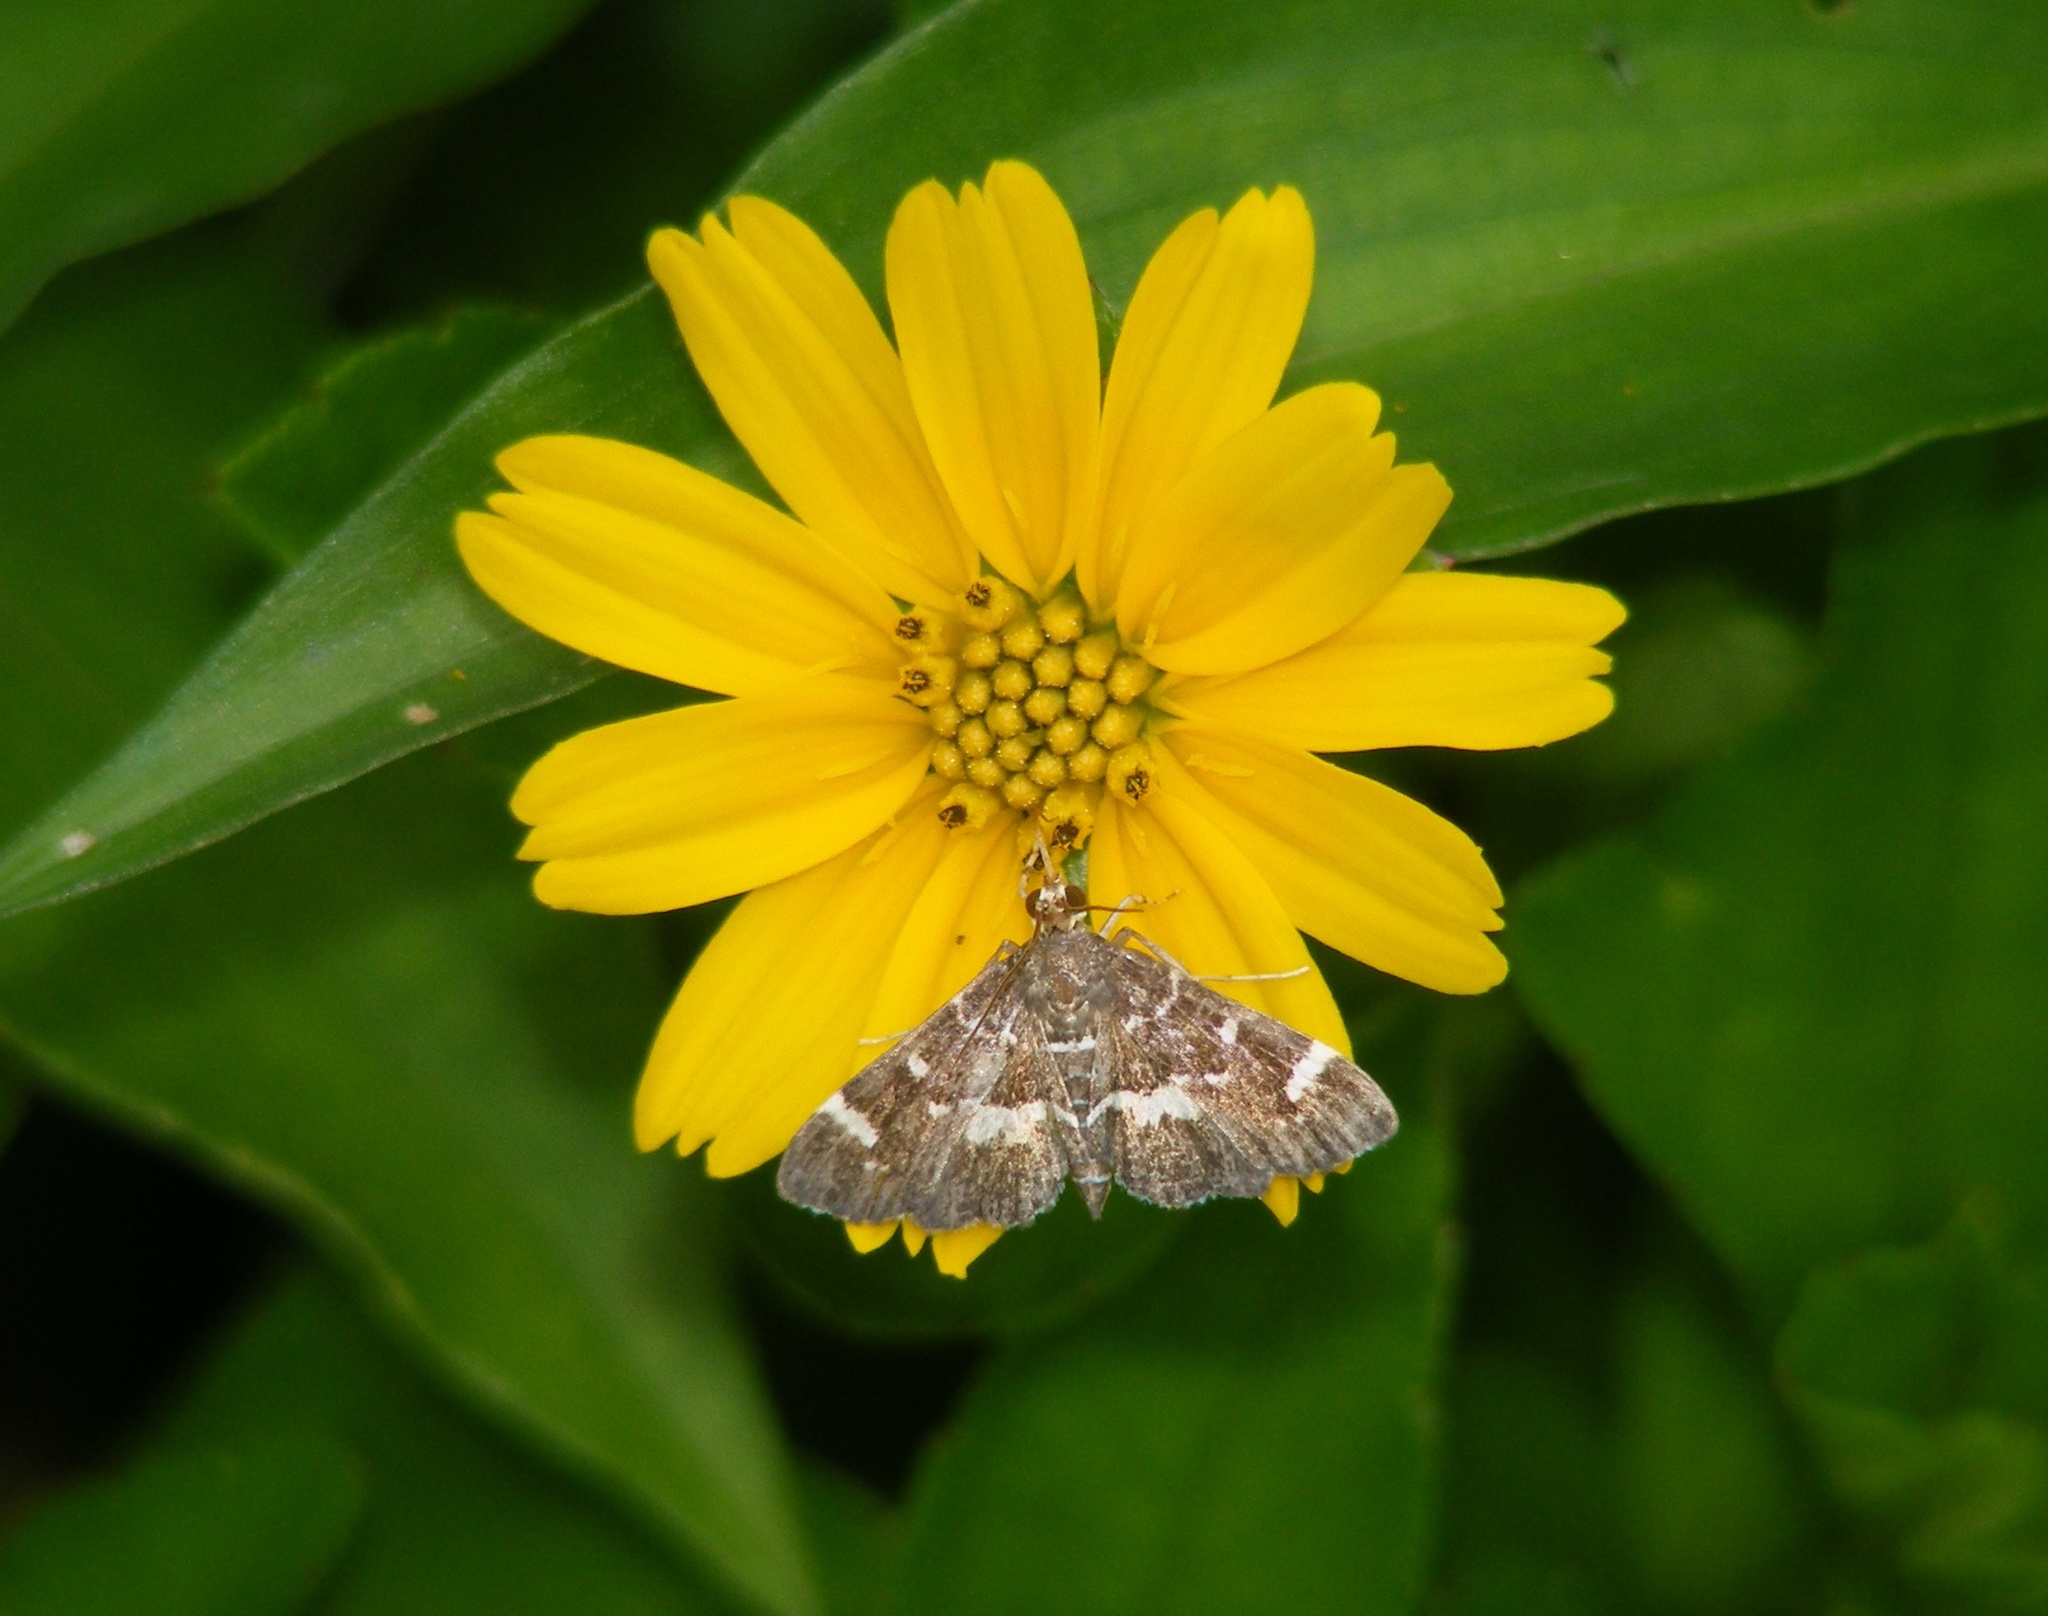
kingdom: Animalia
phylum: Arthropoda
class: Insecta
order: Lepidoptera
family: Crambidae
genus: Hymenia
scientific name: Hymenia perspectalis
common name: Spotted beet webworm
